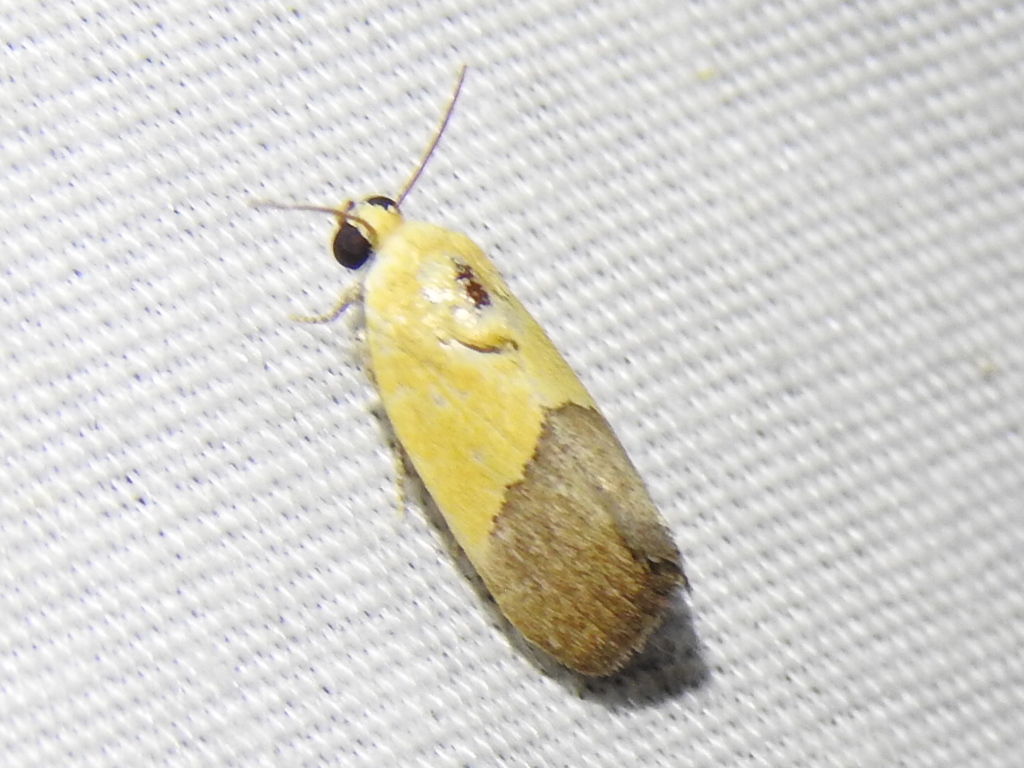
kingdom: Animalia
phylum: Arthropoda
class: Insecta
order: Lepidoptera
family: Noctuidae
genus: Acontia
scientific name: Acontia semiflava
